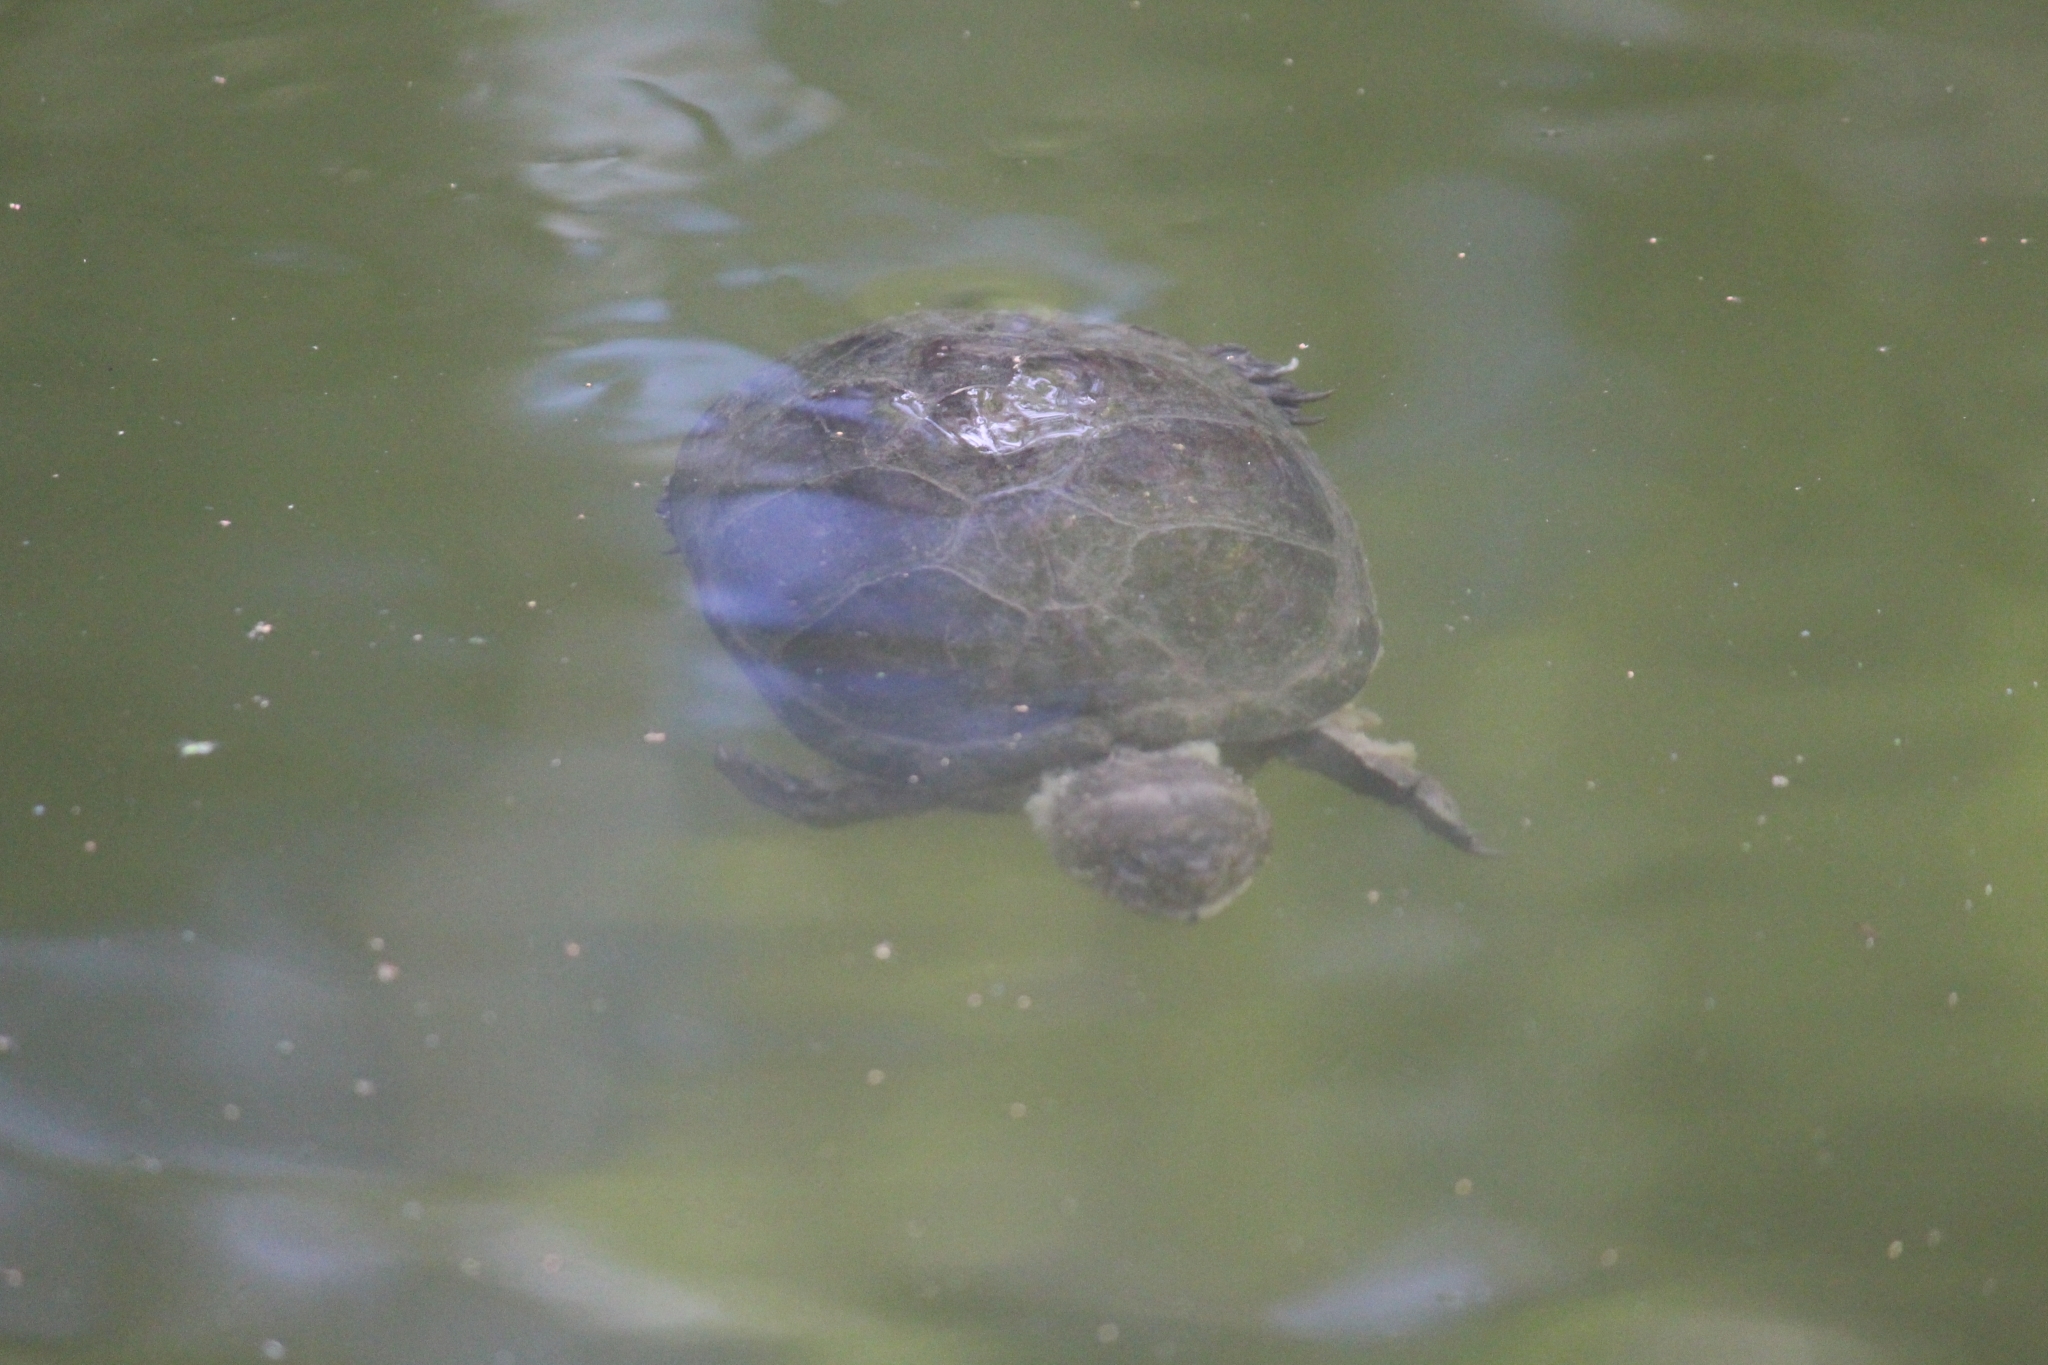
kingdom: Animalia
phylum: Chordata
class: Testudines
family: Kinosternidae
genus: Kinosternon
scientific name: Kinosternon integrum
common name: Mexican mud turtle
